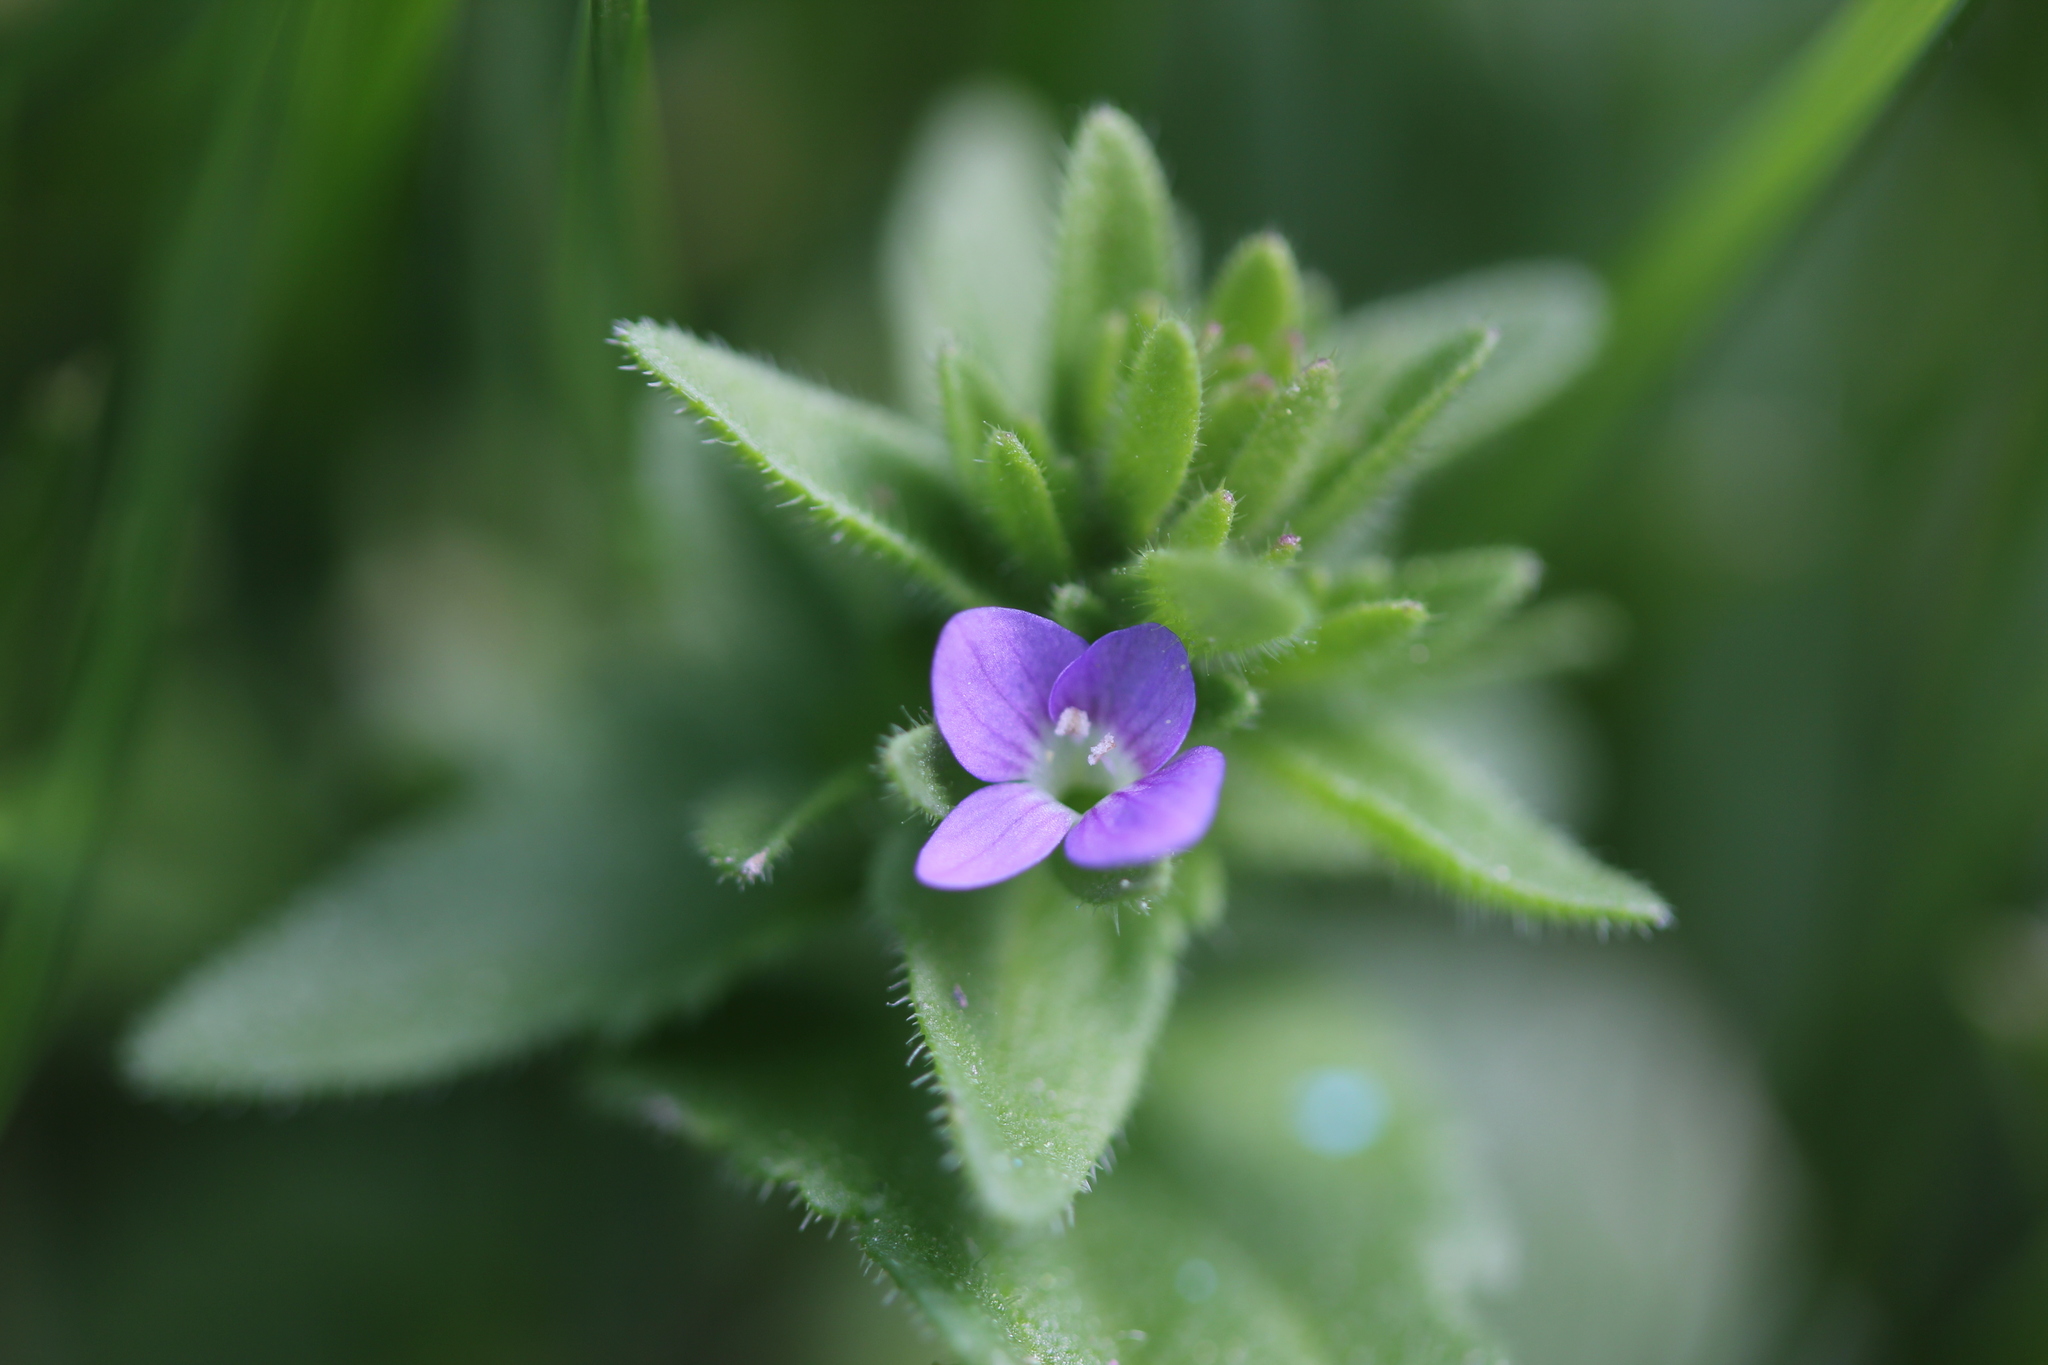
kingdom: Plantae
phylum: Tracheophyta
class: Magnoliopsida
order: Lamiales
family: Plantaginaceae
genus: Veronica
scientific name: Veronica arvensis
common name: Corn speedwell
